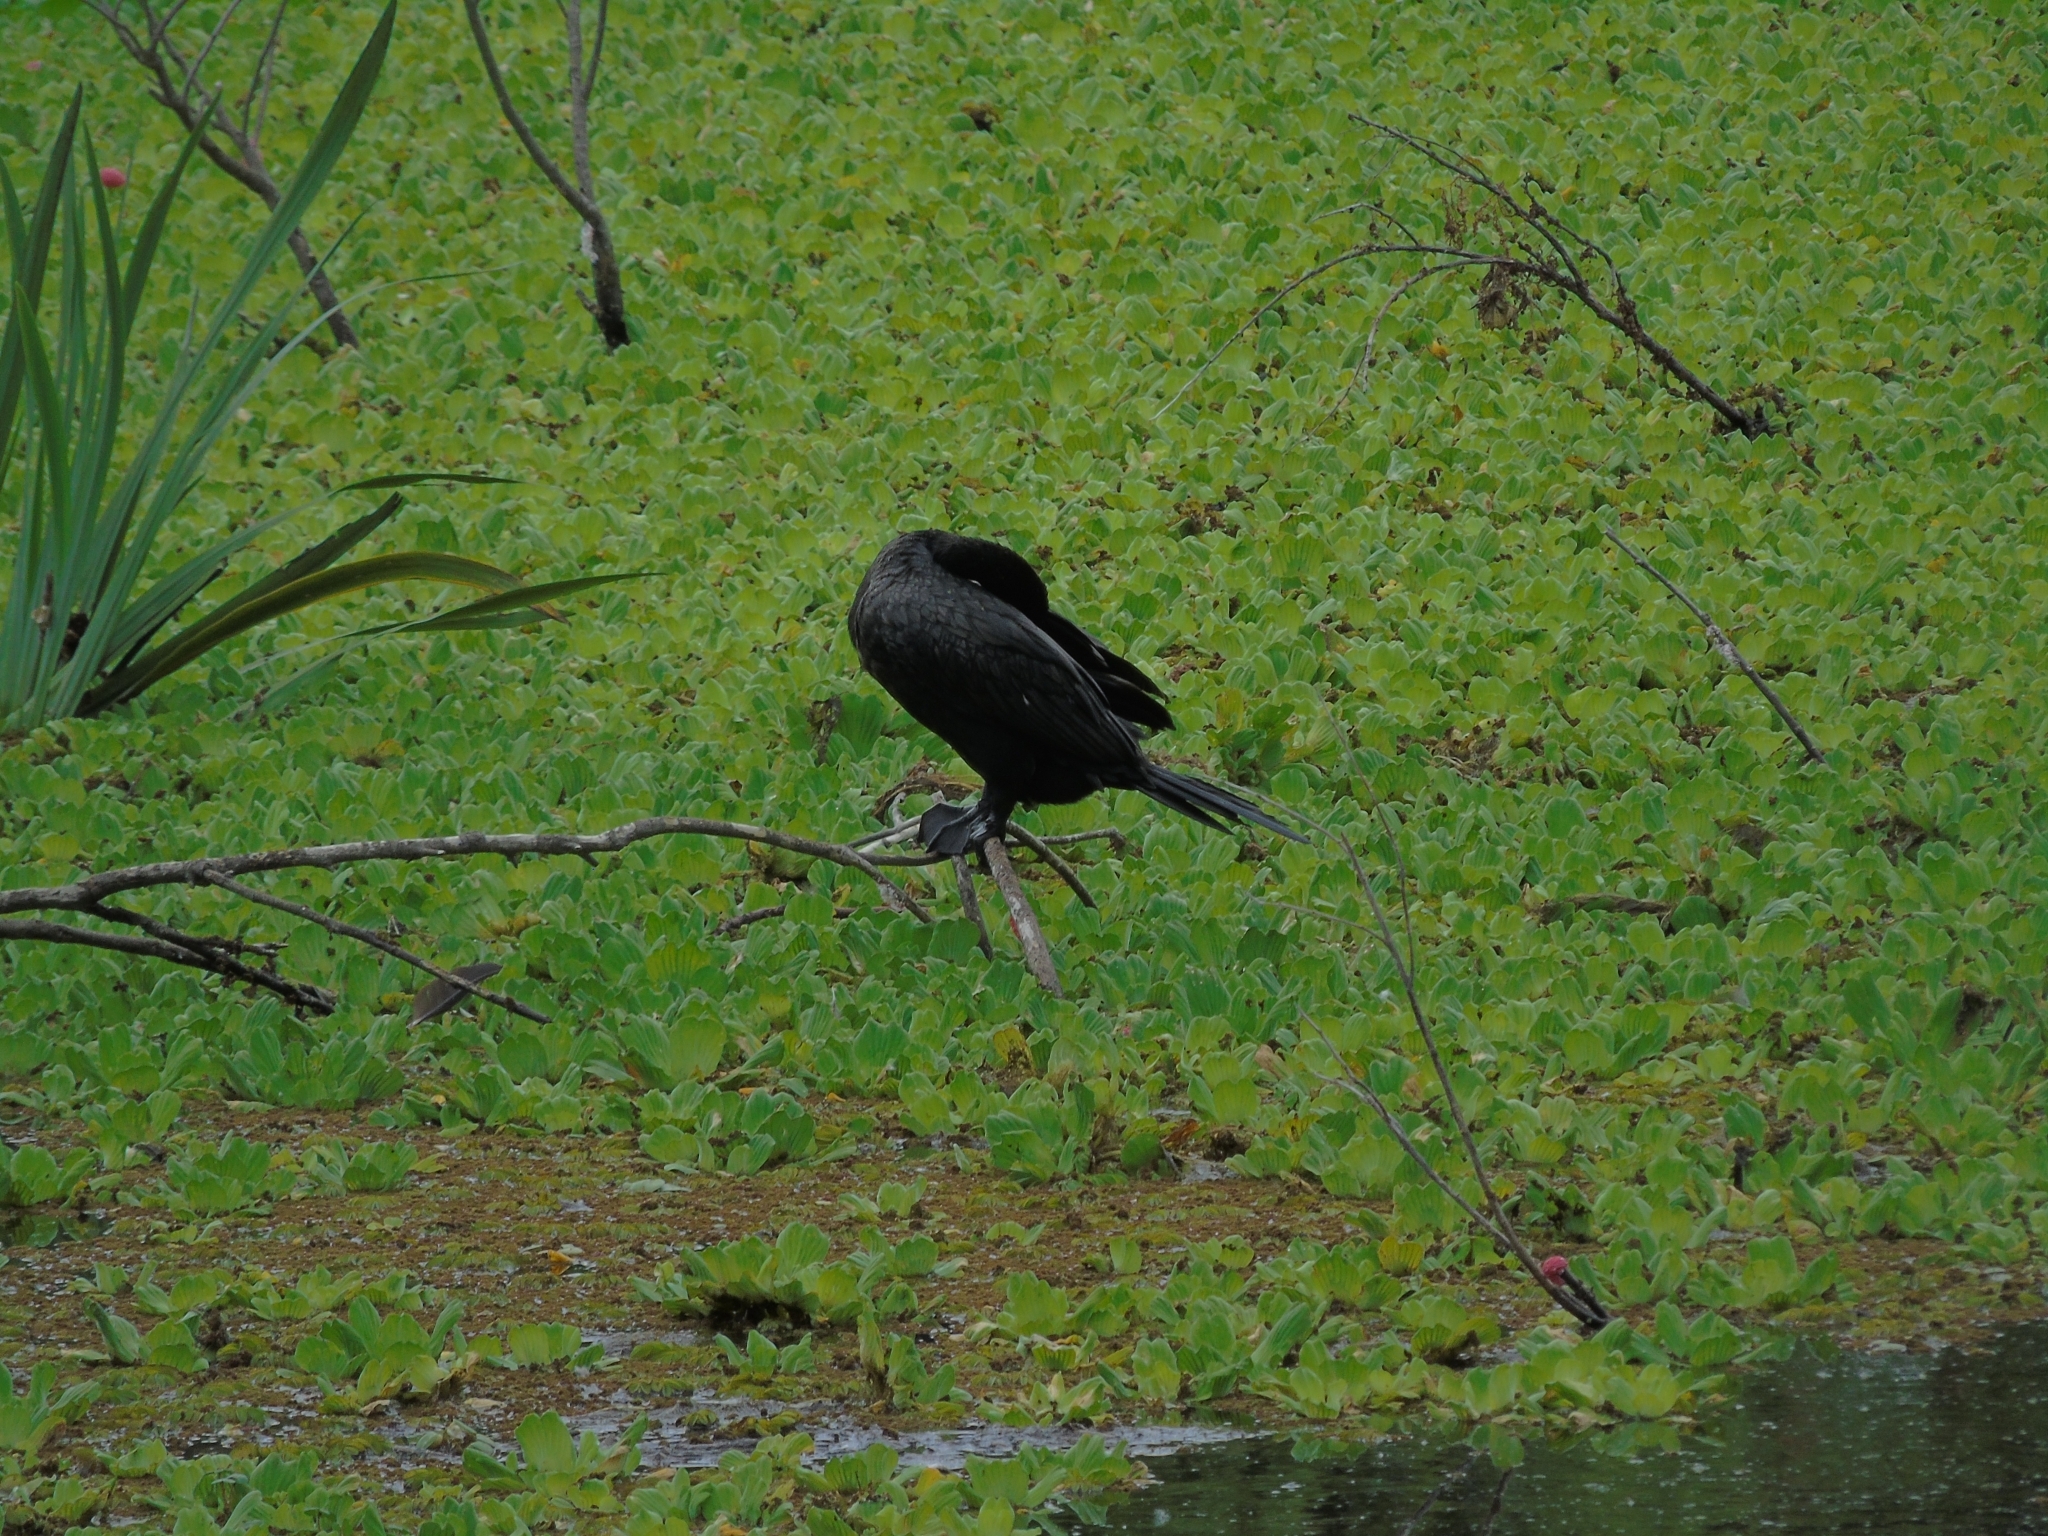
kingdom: Animalia
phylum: Chordata
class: Aves
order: Suliformes
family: Phalacrocoracidae
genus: Phalacrocorax
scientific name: Phalacrocorax brasilianus
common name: Neotropic cormorant
